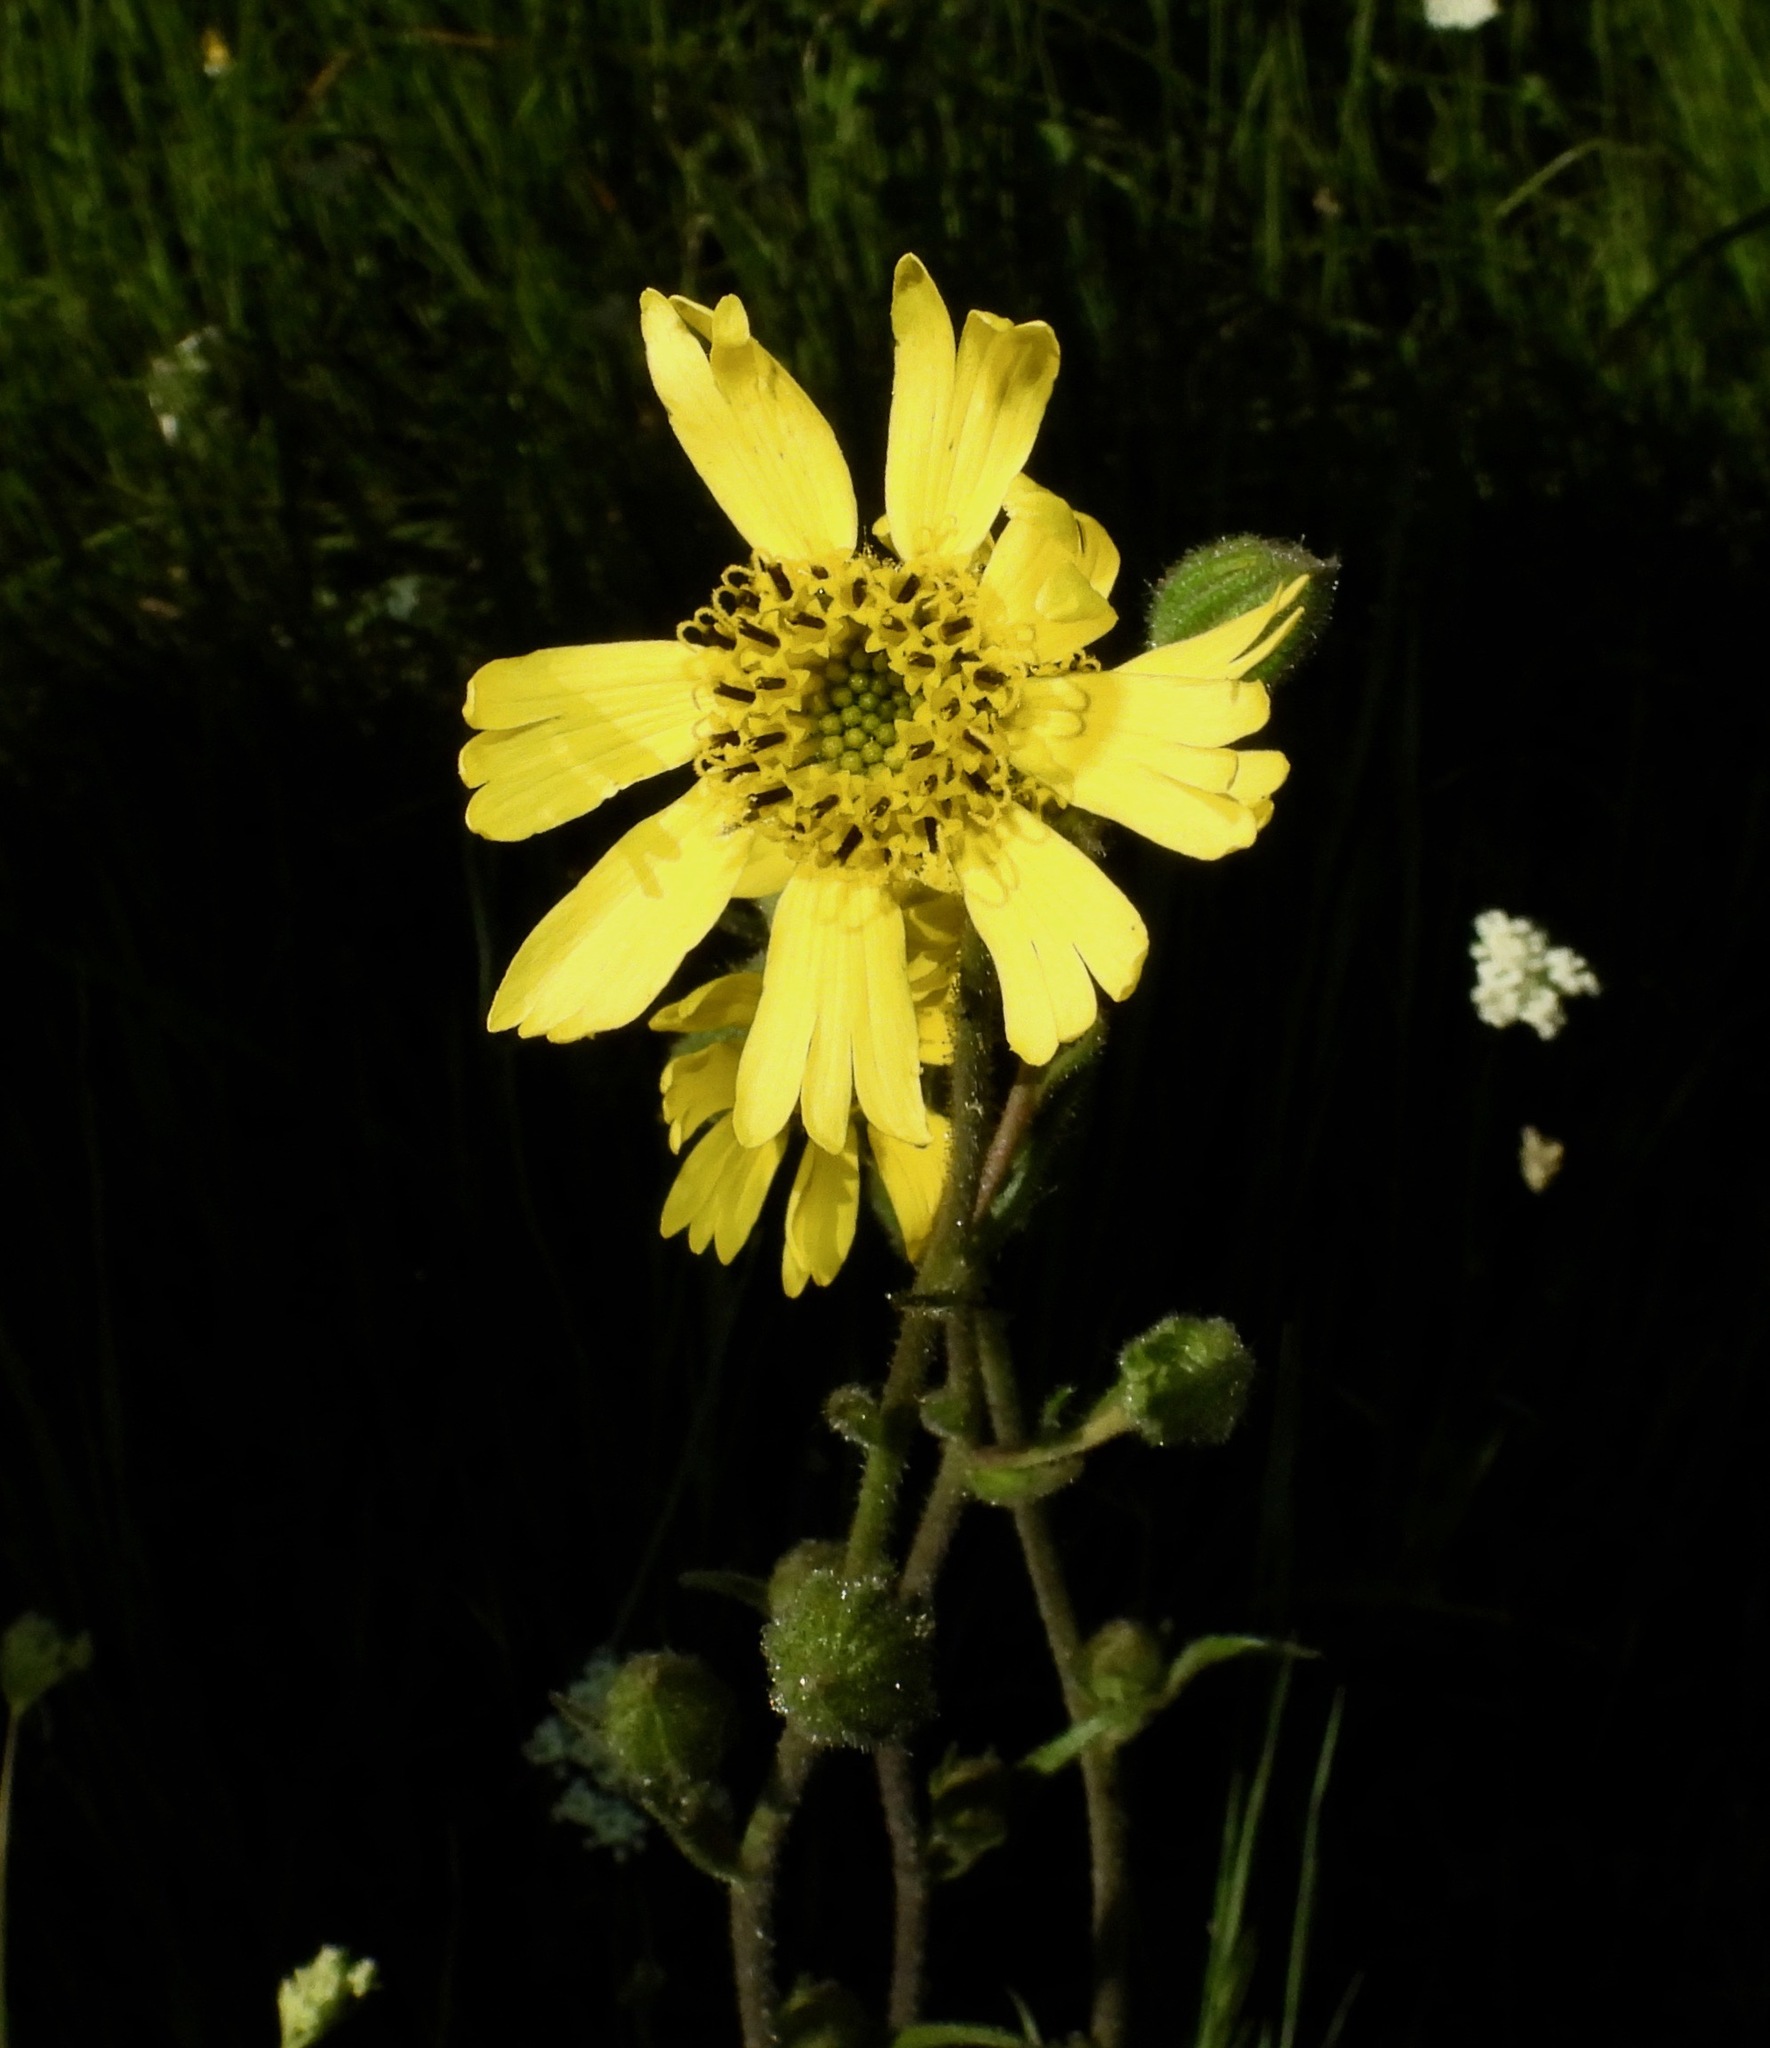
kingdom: Plantae
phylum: Tracheophyta
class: Magnoliopsida
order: Asterales
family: Asteraceae
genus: Kyhosia
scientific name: Kyhosia bolanderi
